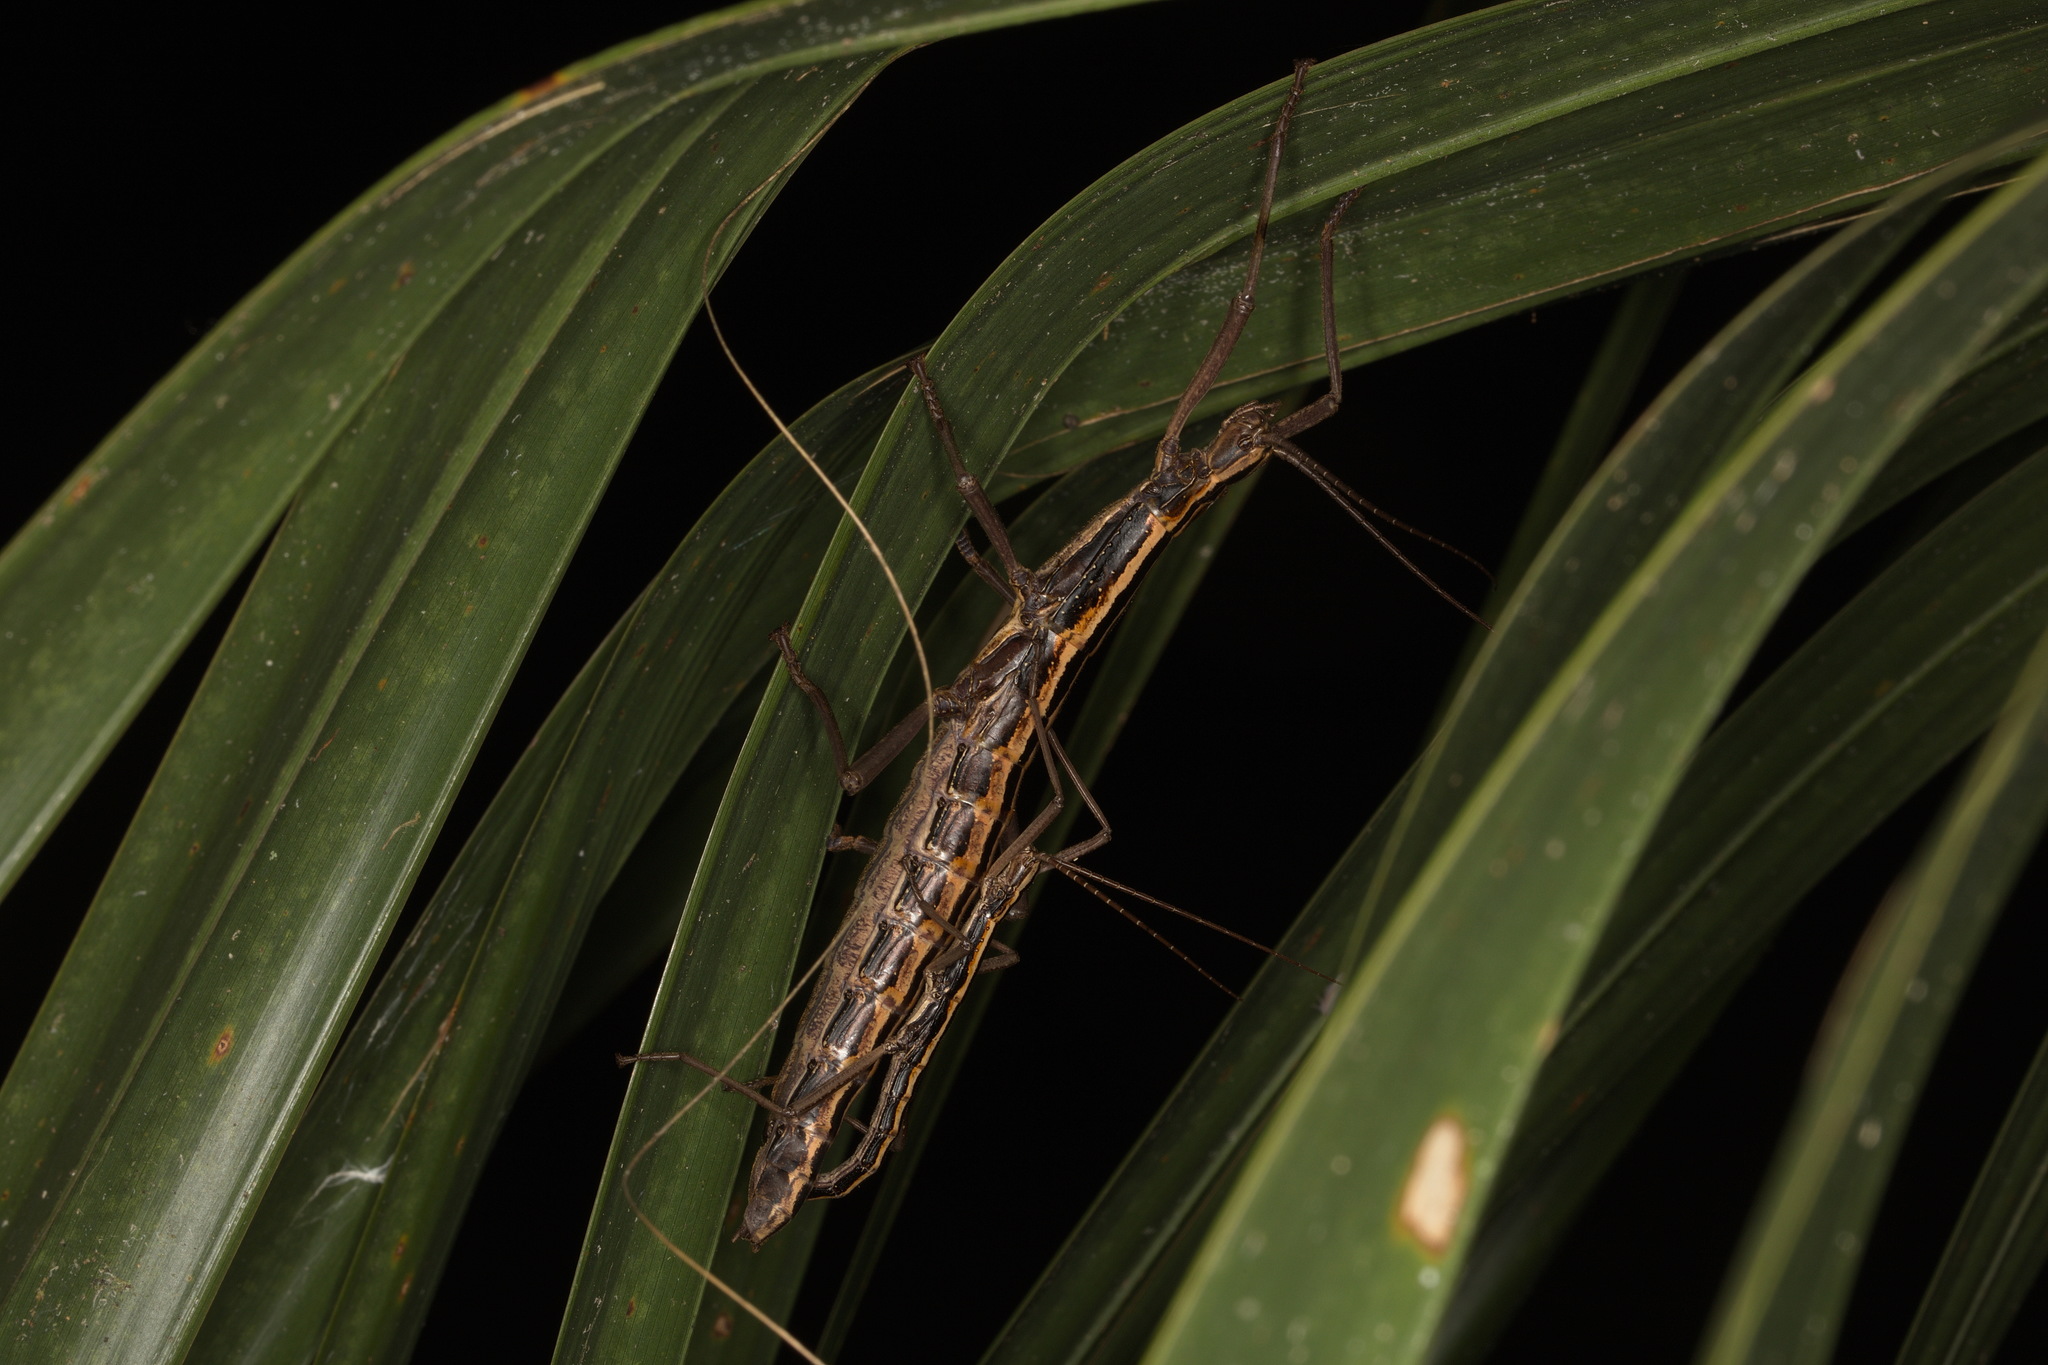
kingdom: Animalia
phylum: Arthropoda
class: Insecta
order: Phasmida
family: Pseudophasmatidae
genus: Anisomorpha
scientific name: Anisomorpha buprestoides
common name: Florida stick insect
